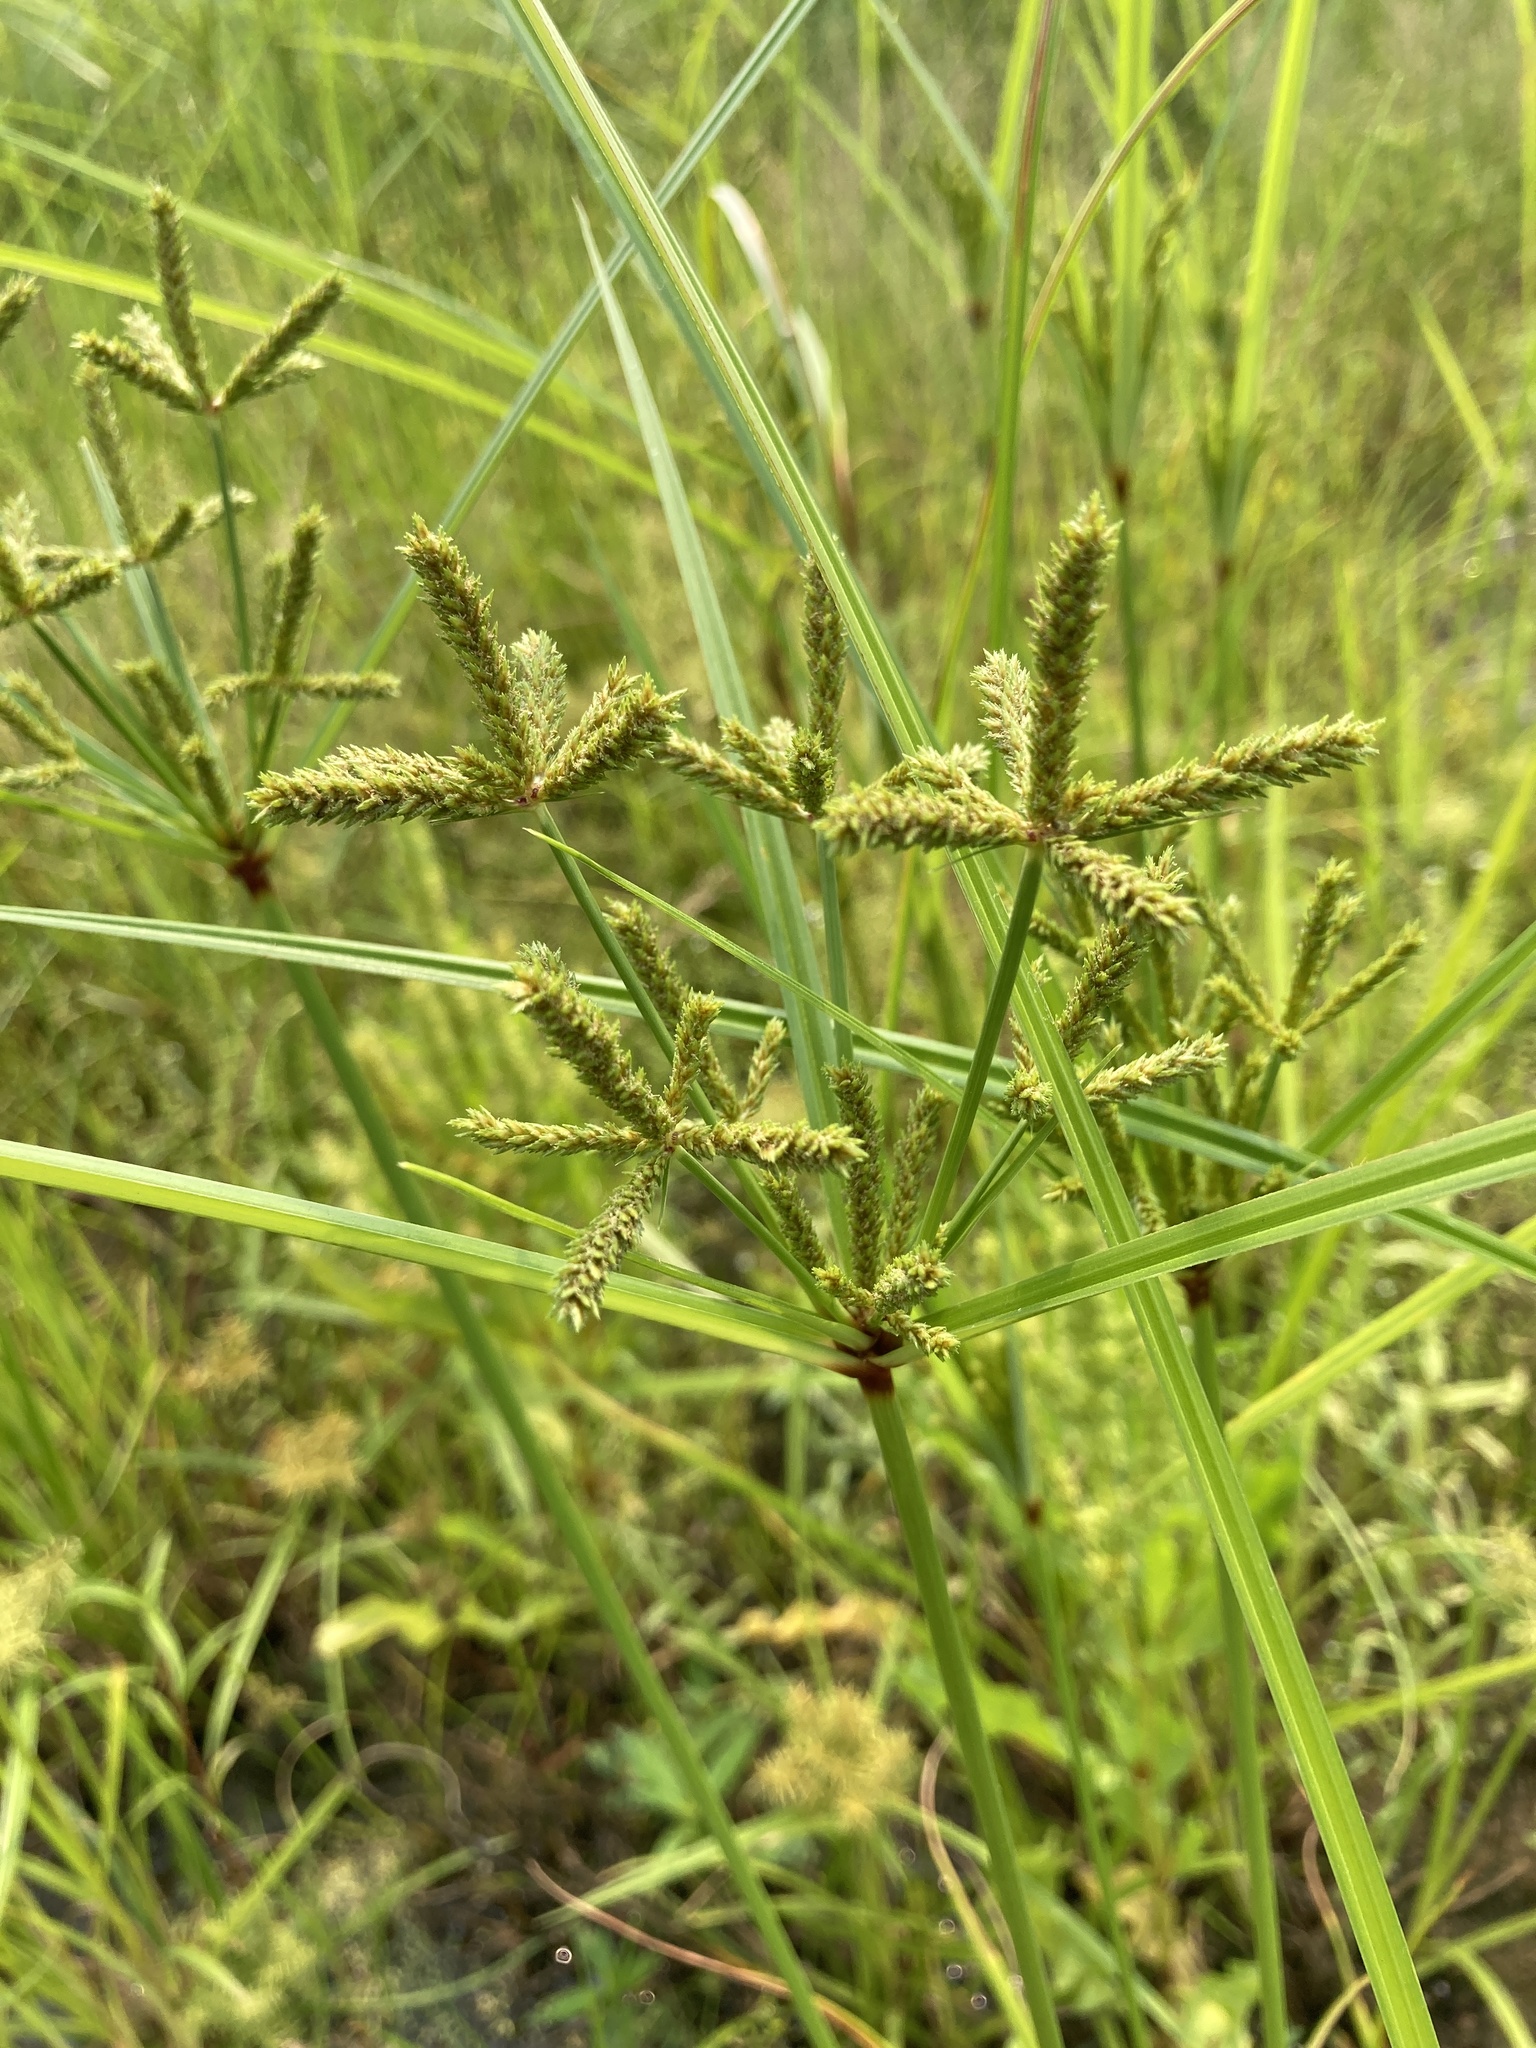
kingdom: Plantae
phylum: Tracheophyta
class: Liliopsida
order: Poales
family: Cyperaceae
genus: Cyperus
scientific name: Cyperus imbricatus
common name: Shingle flatsedge
